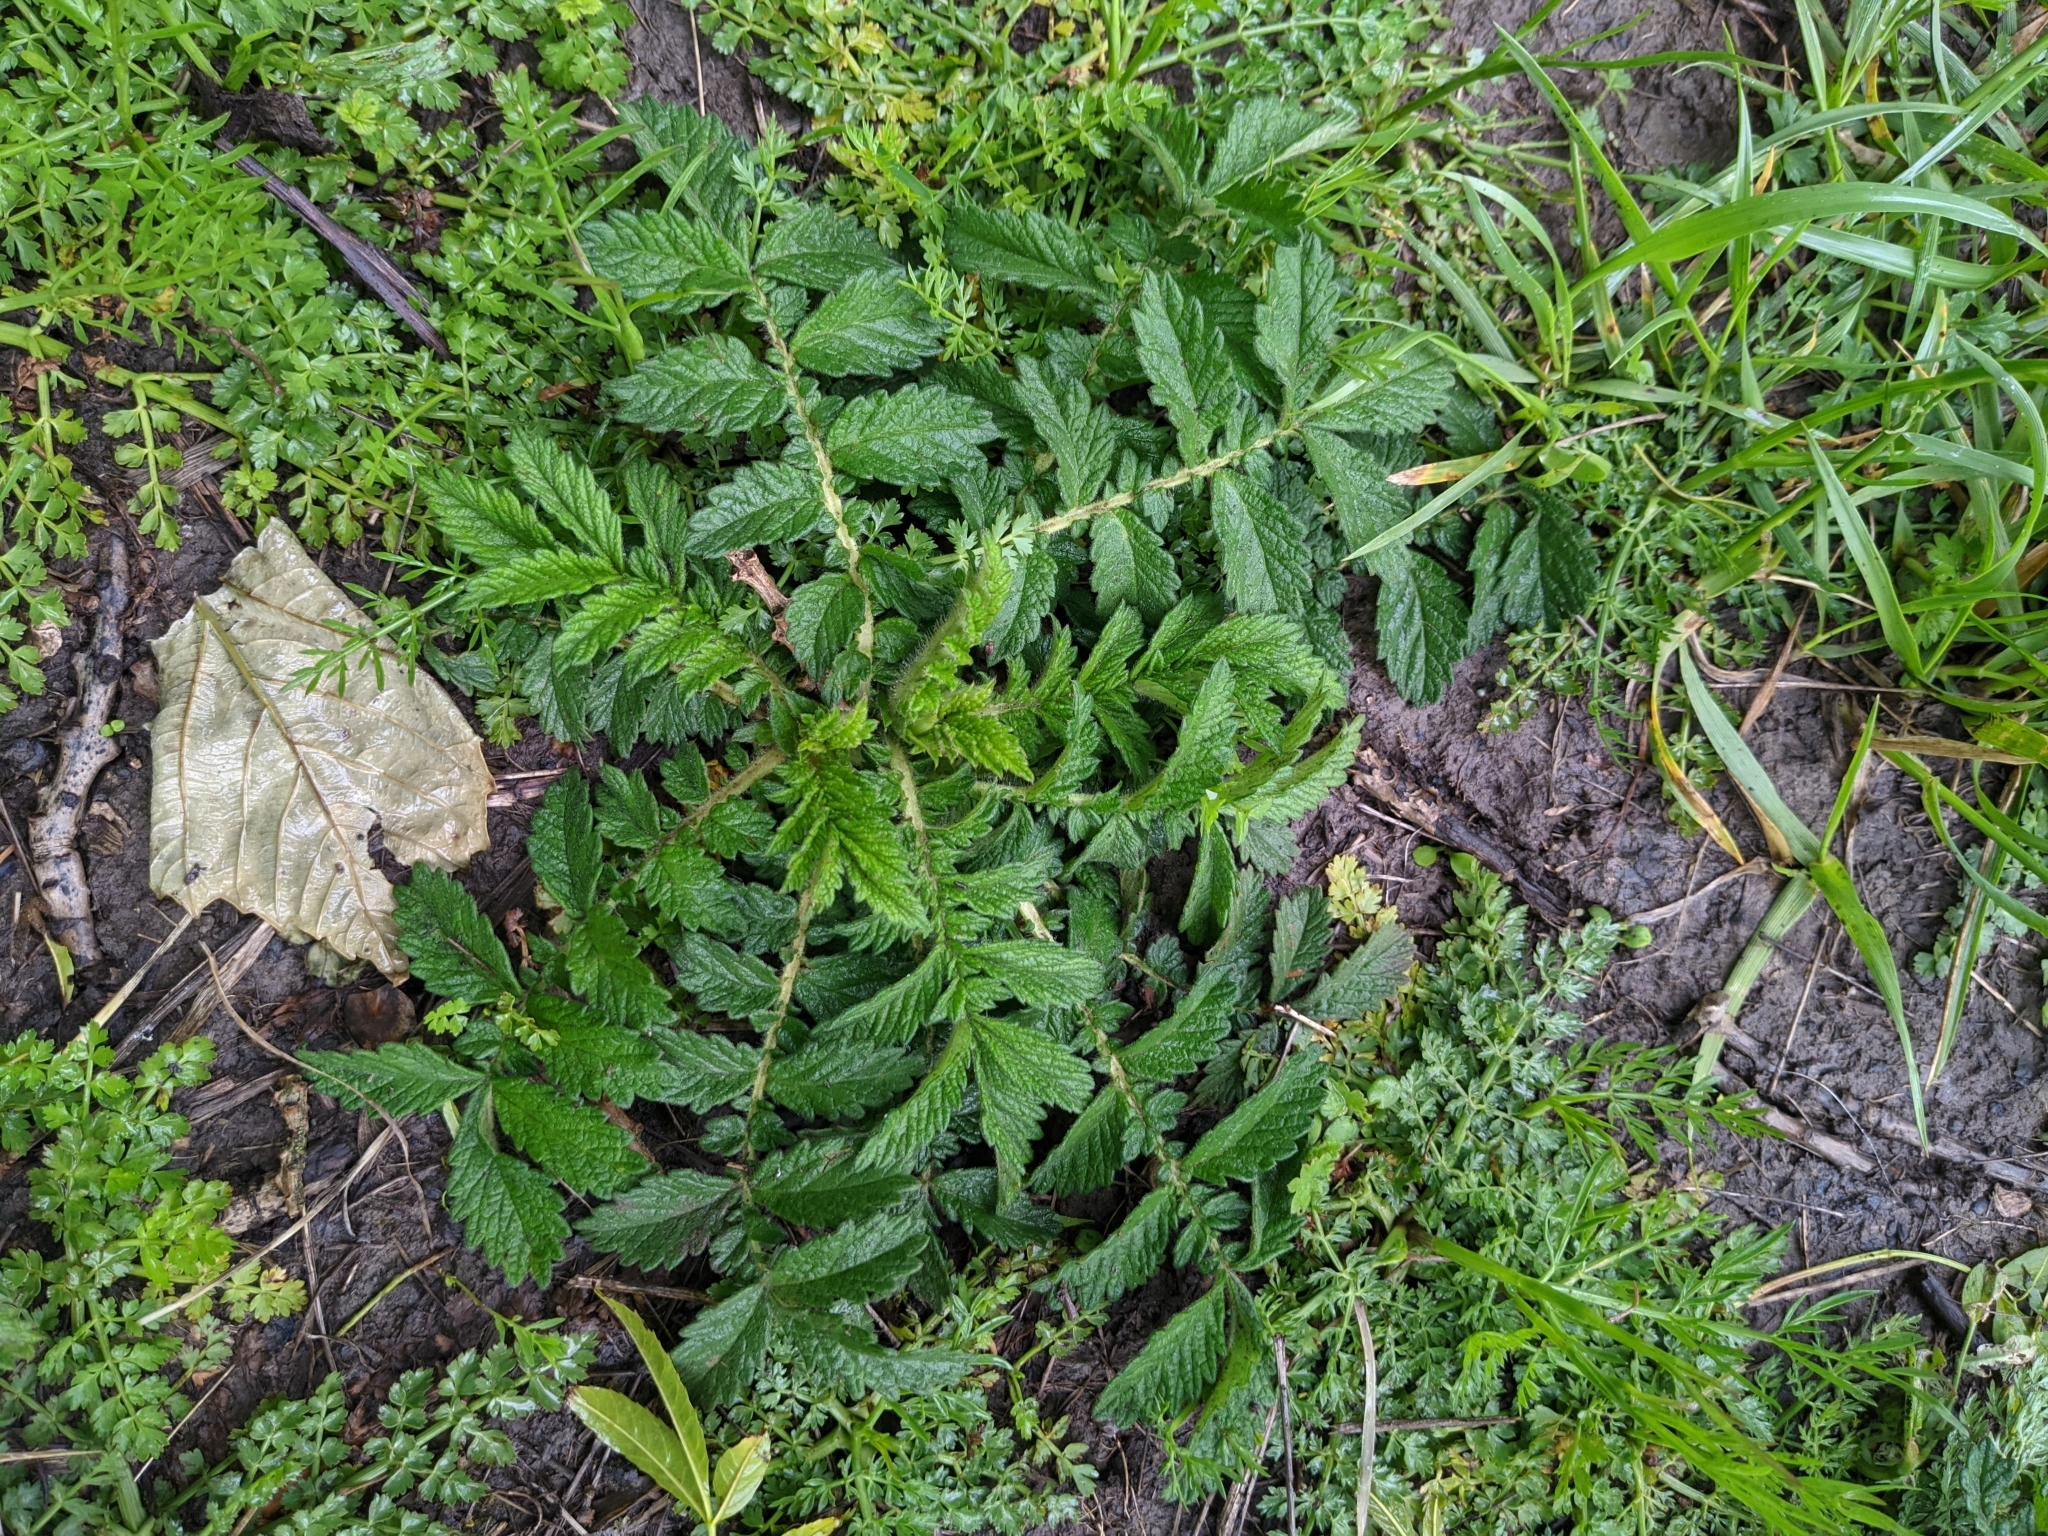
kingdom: Plantae
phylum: Tracheophyta
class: Magnoliopsida
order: Rosales
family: Rosaceae
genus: Agrimonia
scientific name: Agrimonia eupatoria
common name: Agrimony
